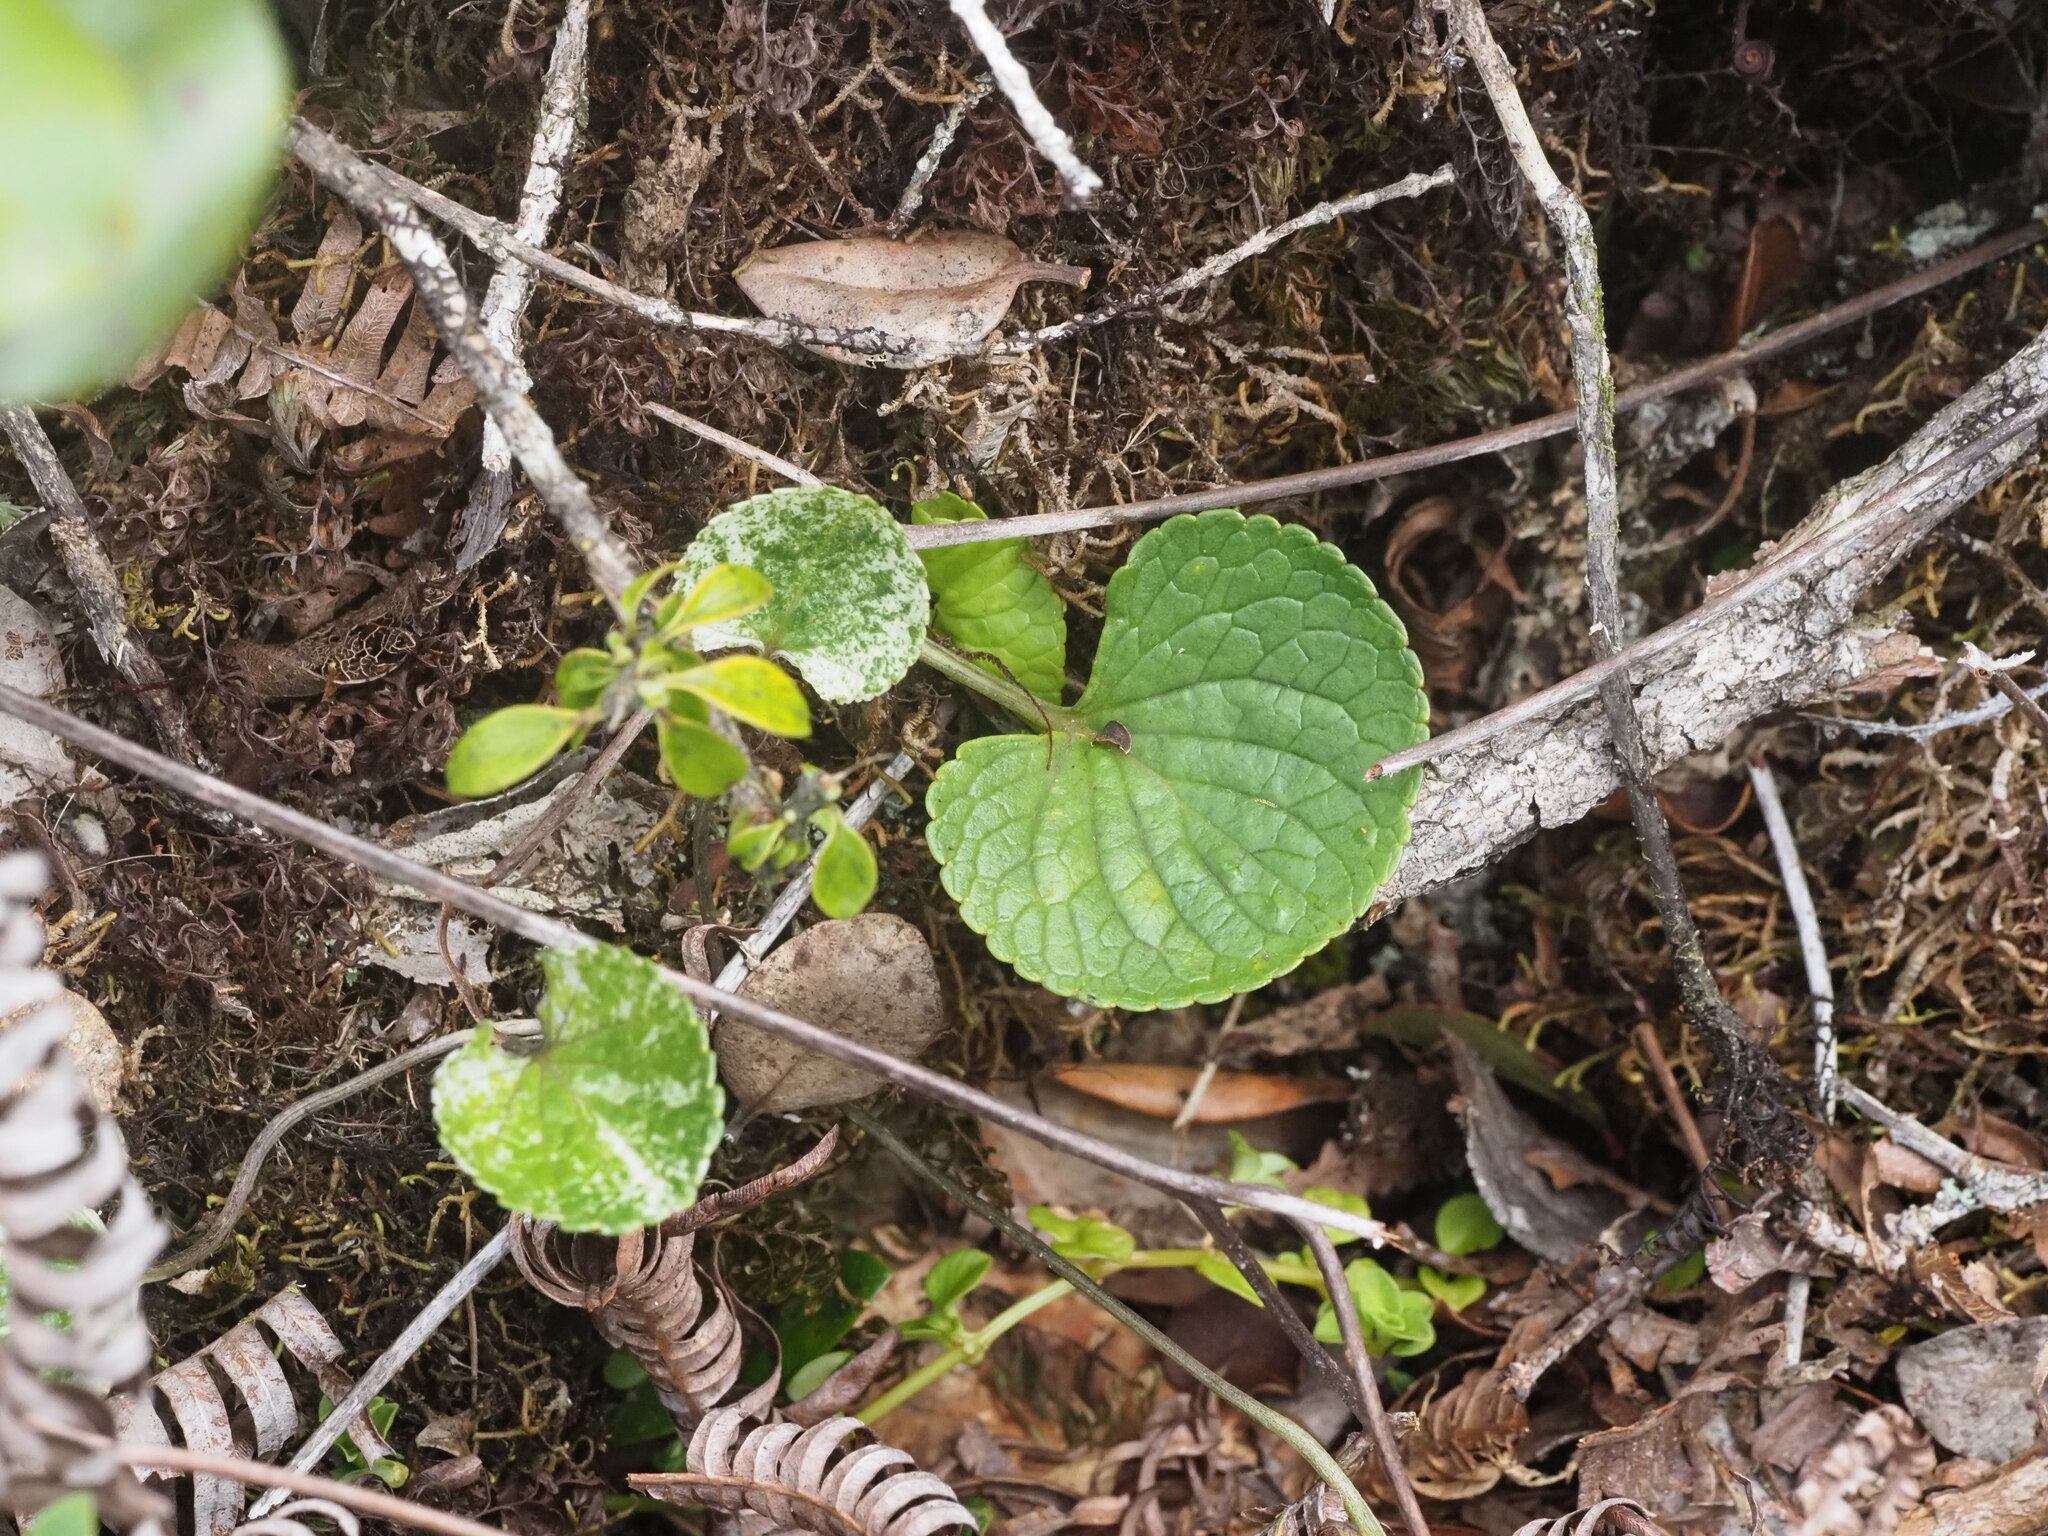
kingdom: Plantae
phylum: Tracheophyta
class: Magnoliopsida
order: Malpighiales
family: Violaceae
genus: Viola
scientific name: Viola kauaensis
